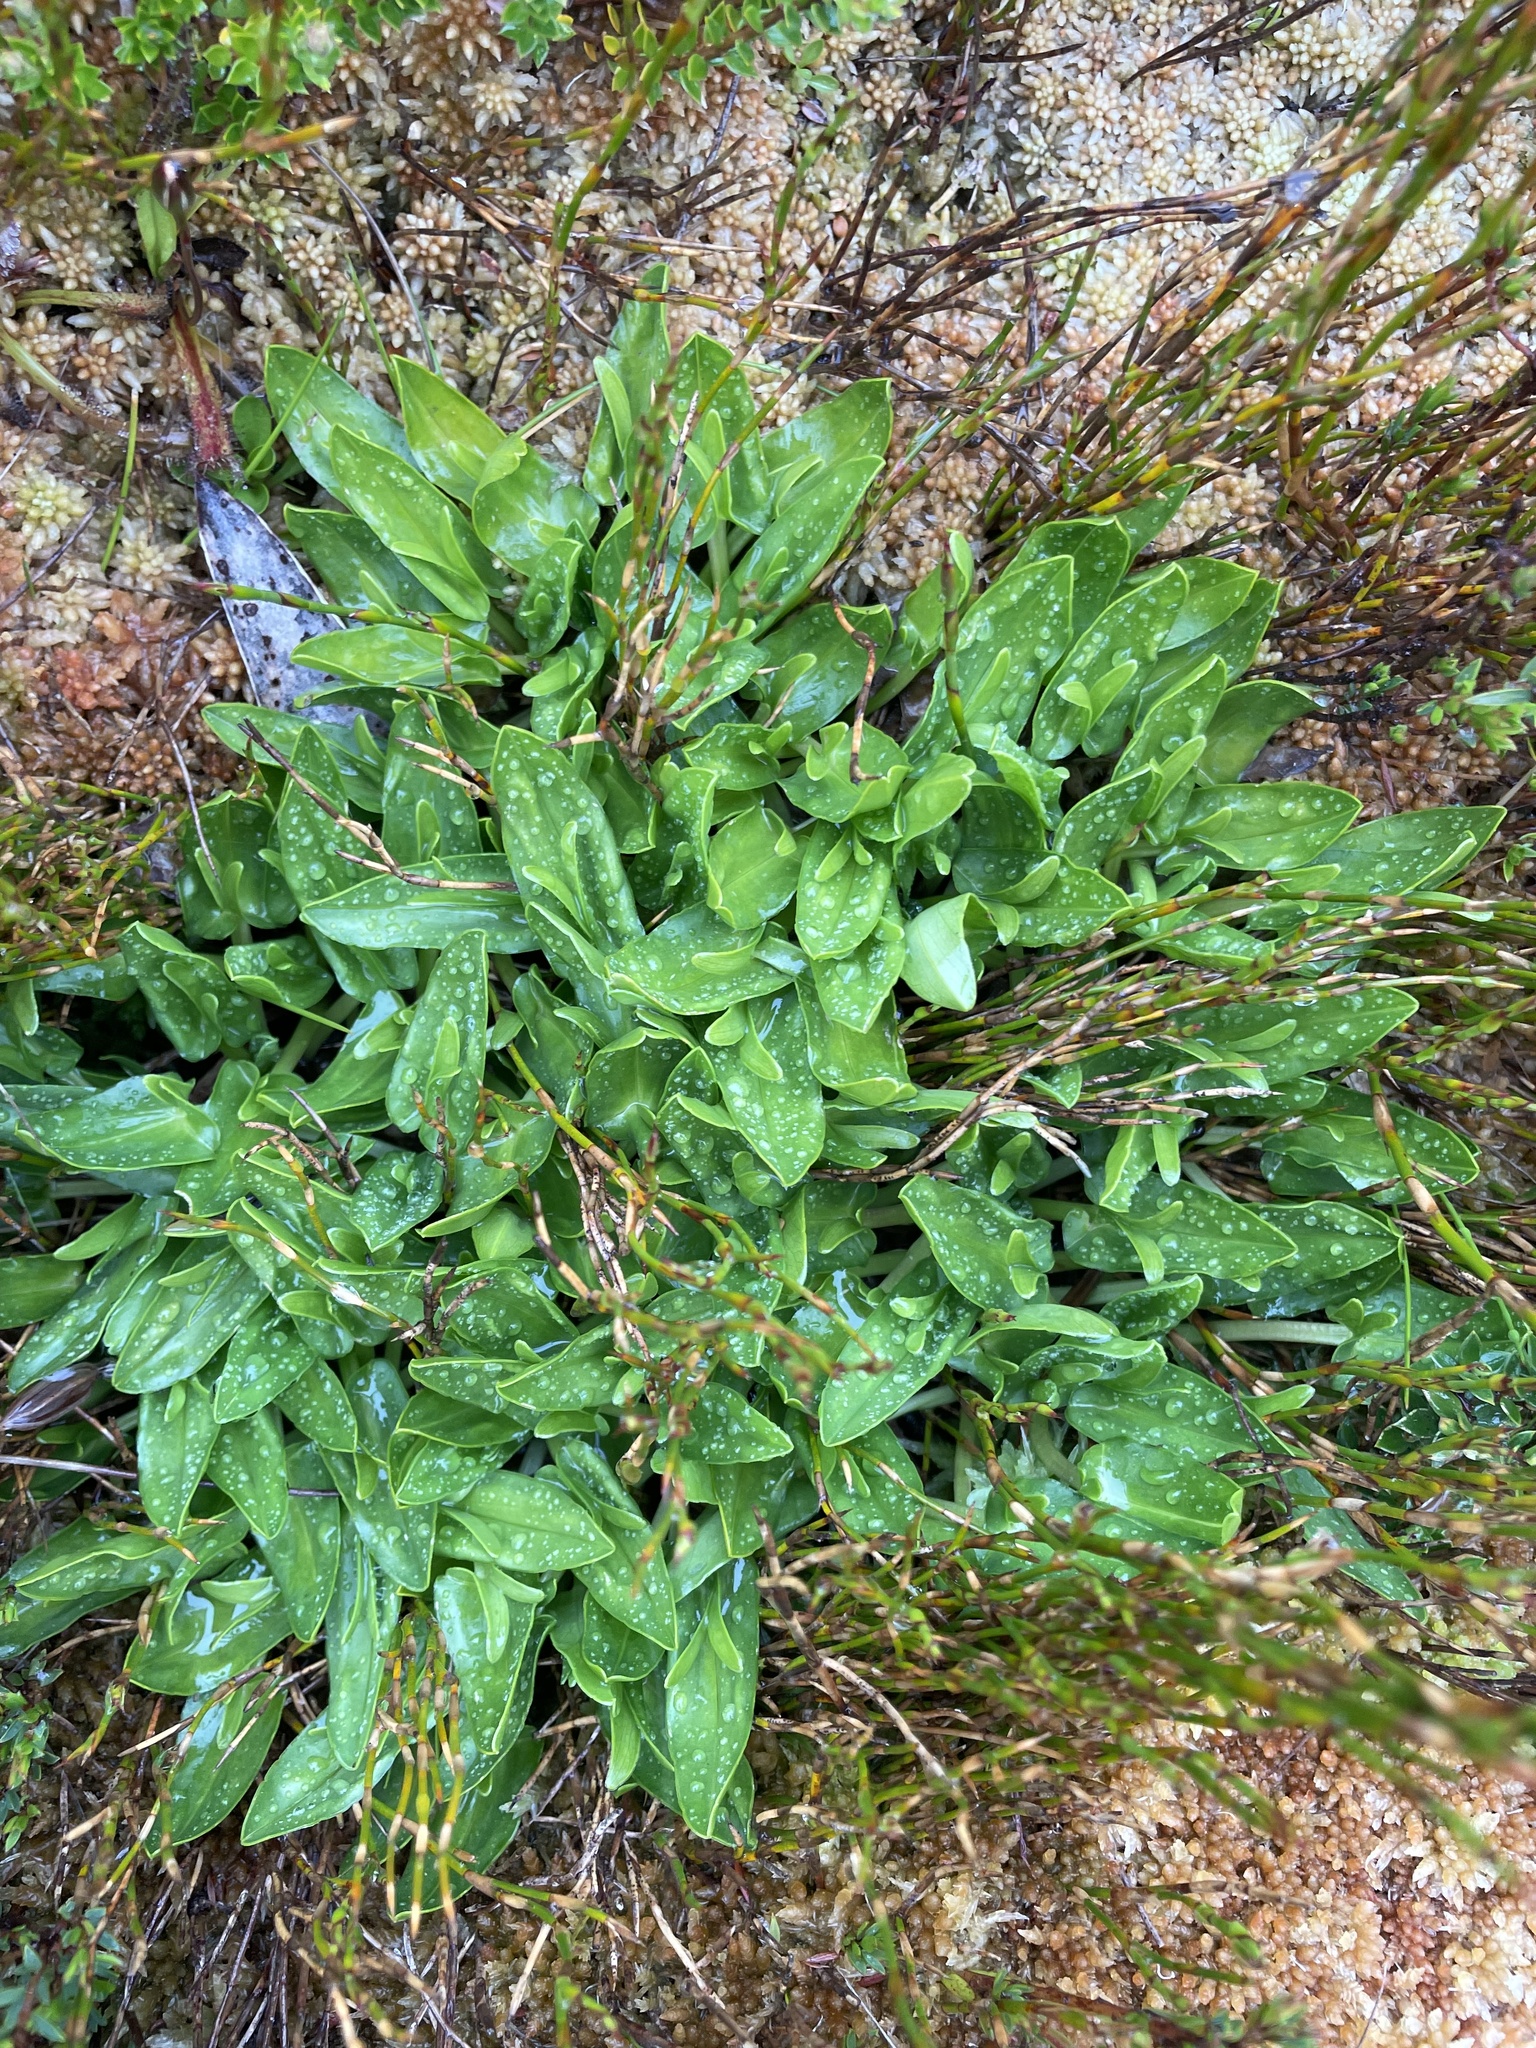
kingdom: Plantae
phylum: Tracheophyta
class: Magnoliopsida
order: Ranunculales
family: Ranunculaceae
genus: Caltha
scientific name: Caltha introloba
